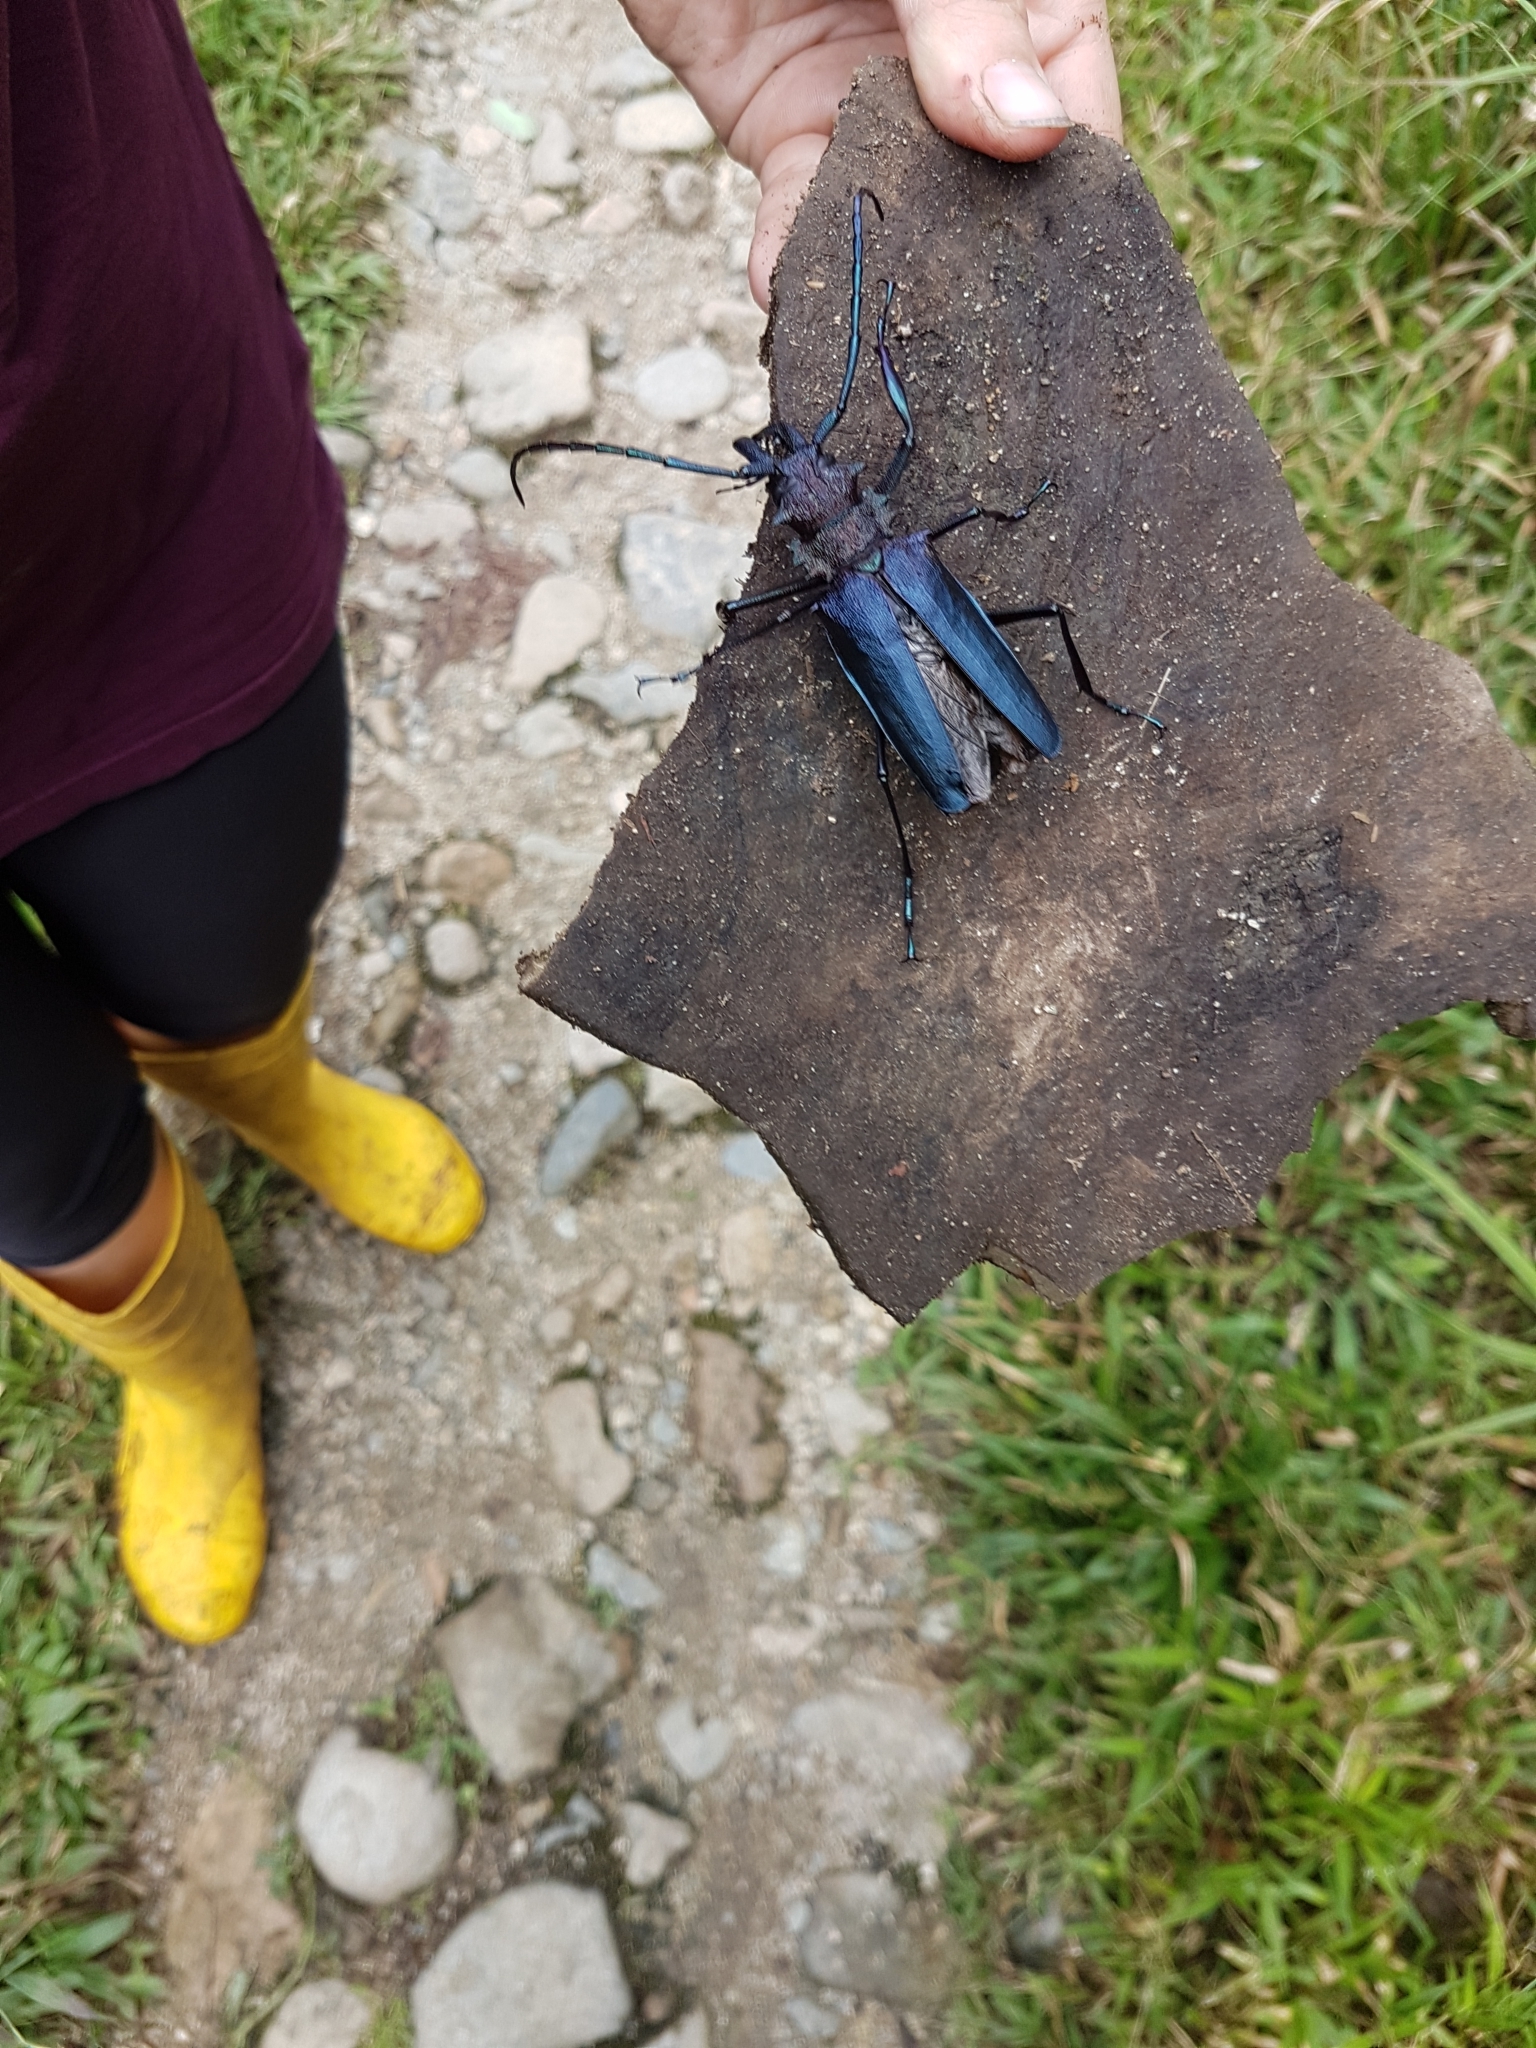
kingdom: Animalia
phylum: Arthropoda
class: Insecta
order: Coleoptera
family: Cerambycidae
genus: Psalidognathus
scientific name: Psalidognathus friendii
